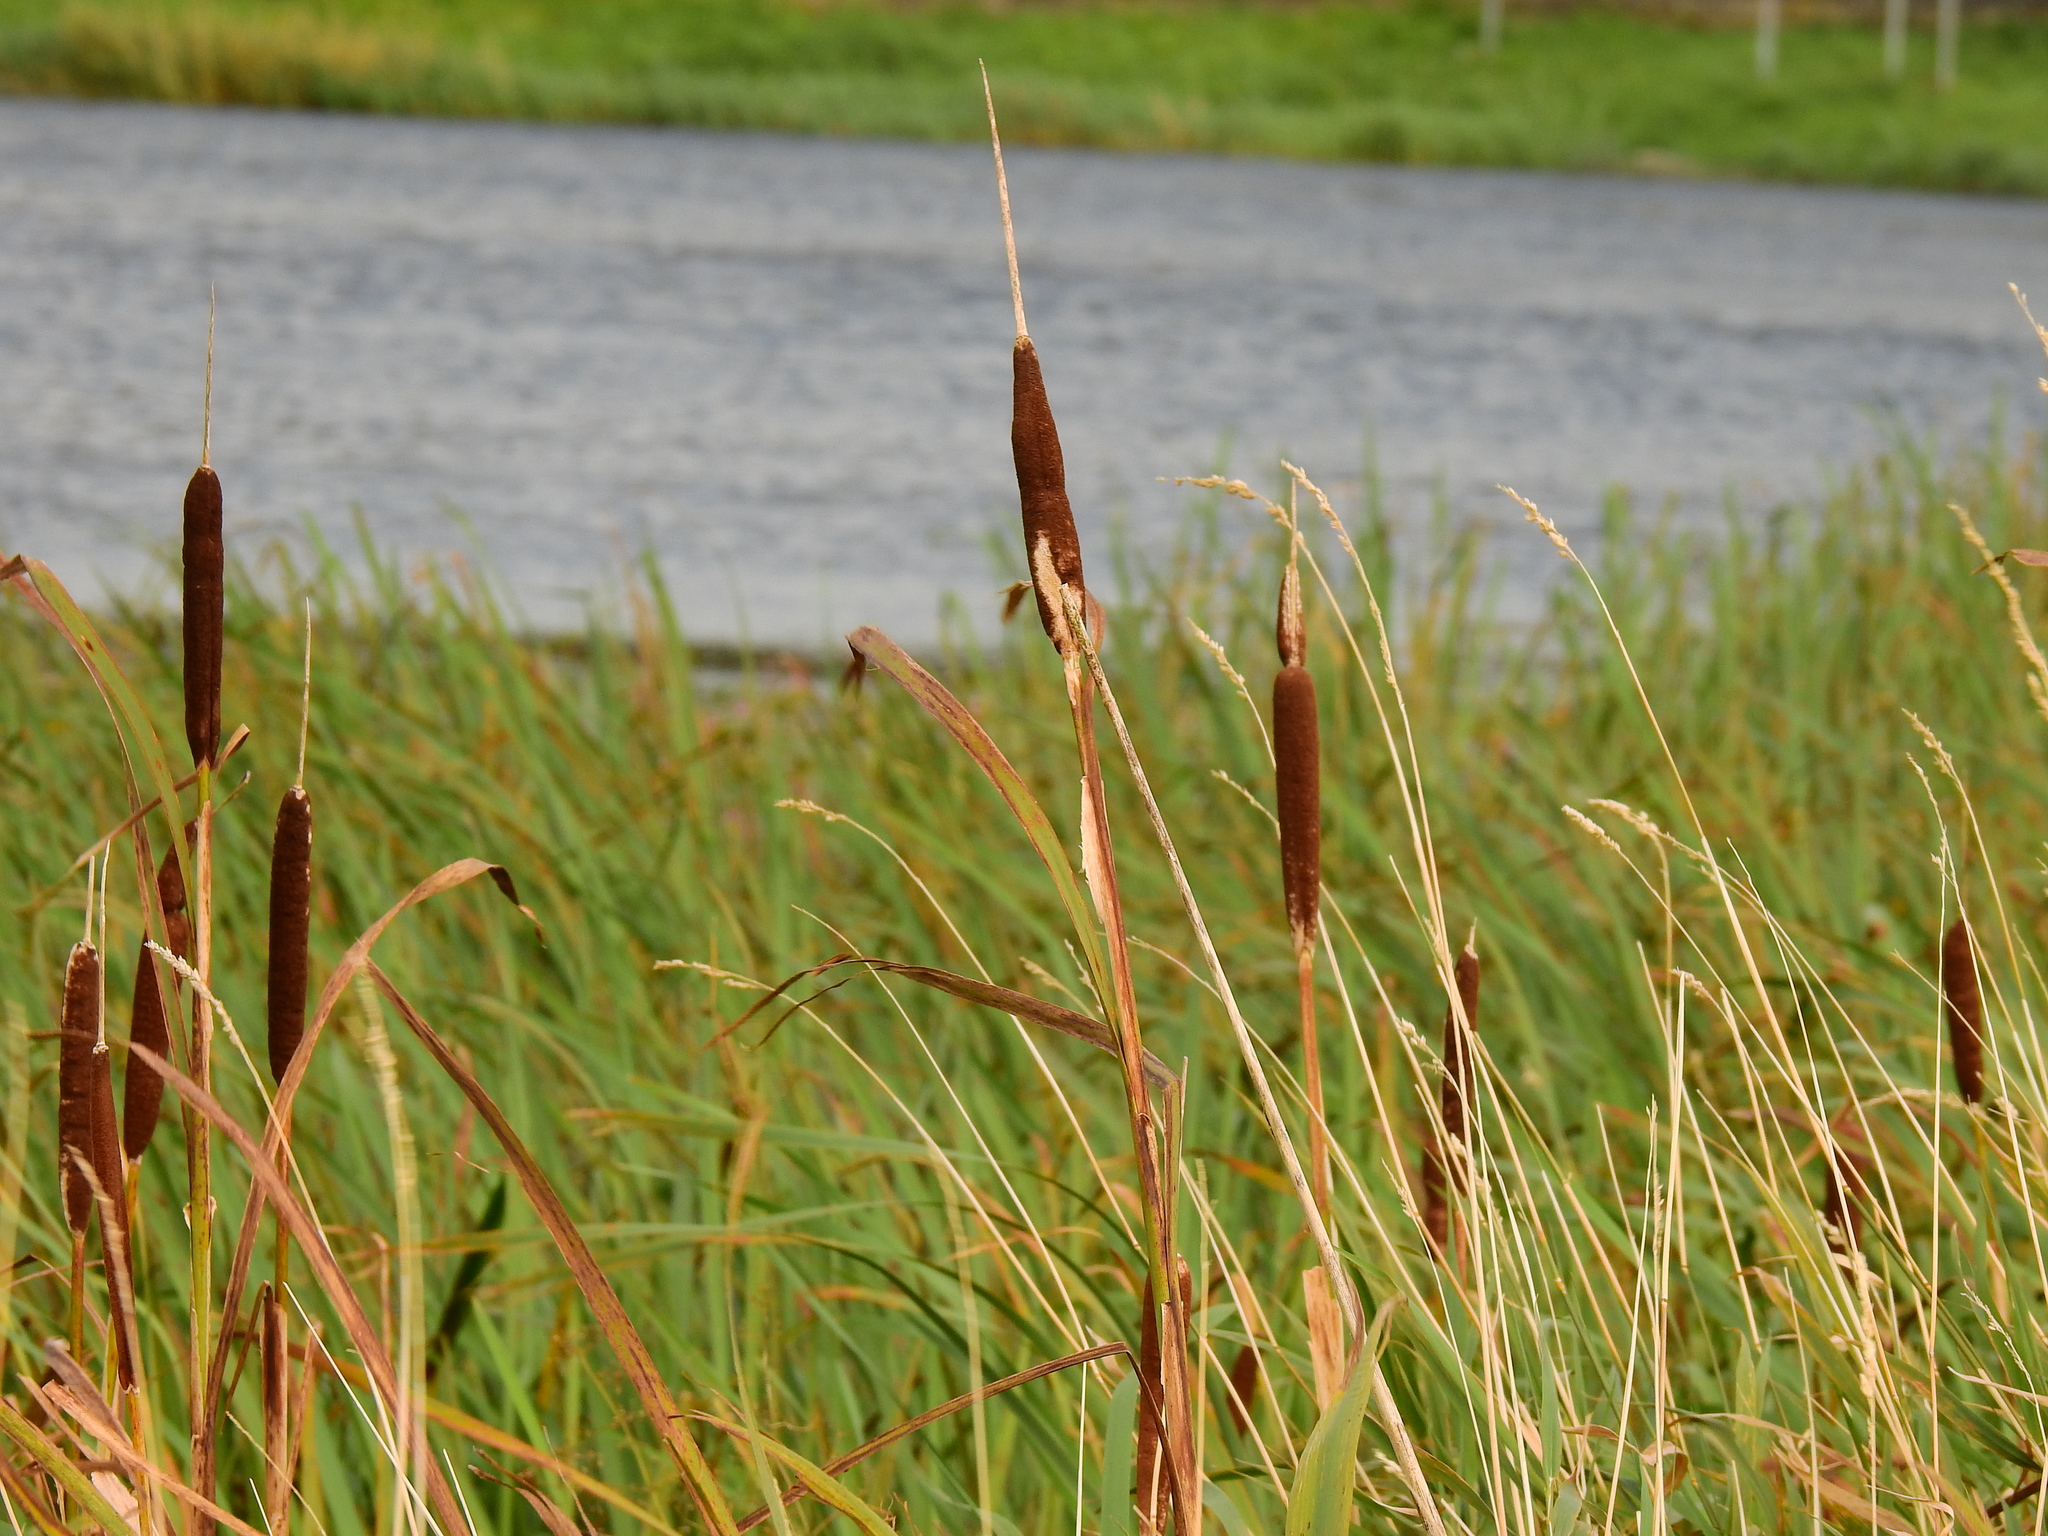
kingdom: Plantae
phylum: Tracheophyta
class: Liliopsida
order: Poales
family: Typhaceae
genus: Typha
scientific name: Typha latifolia
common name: Broadleaf cattail
